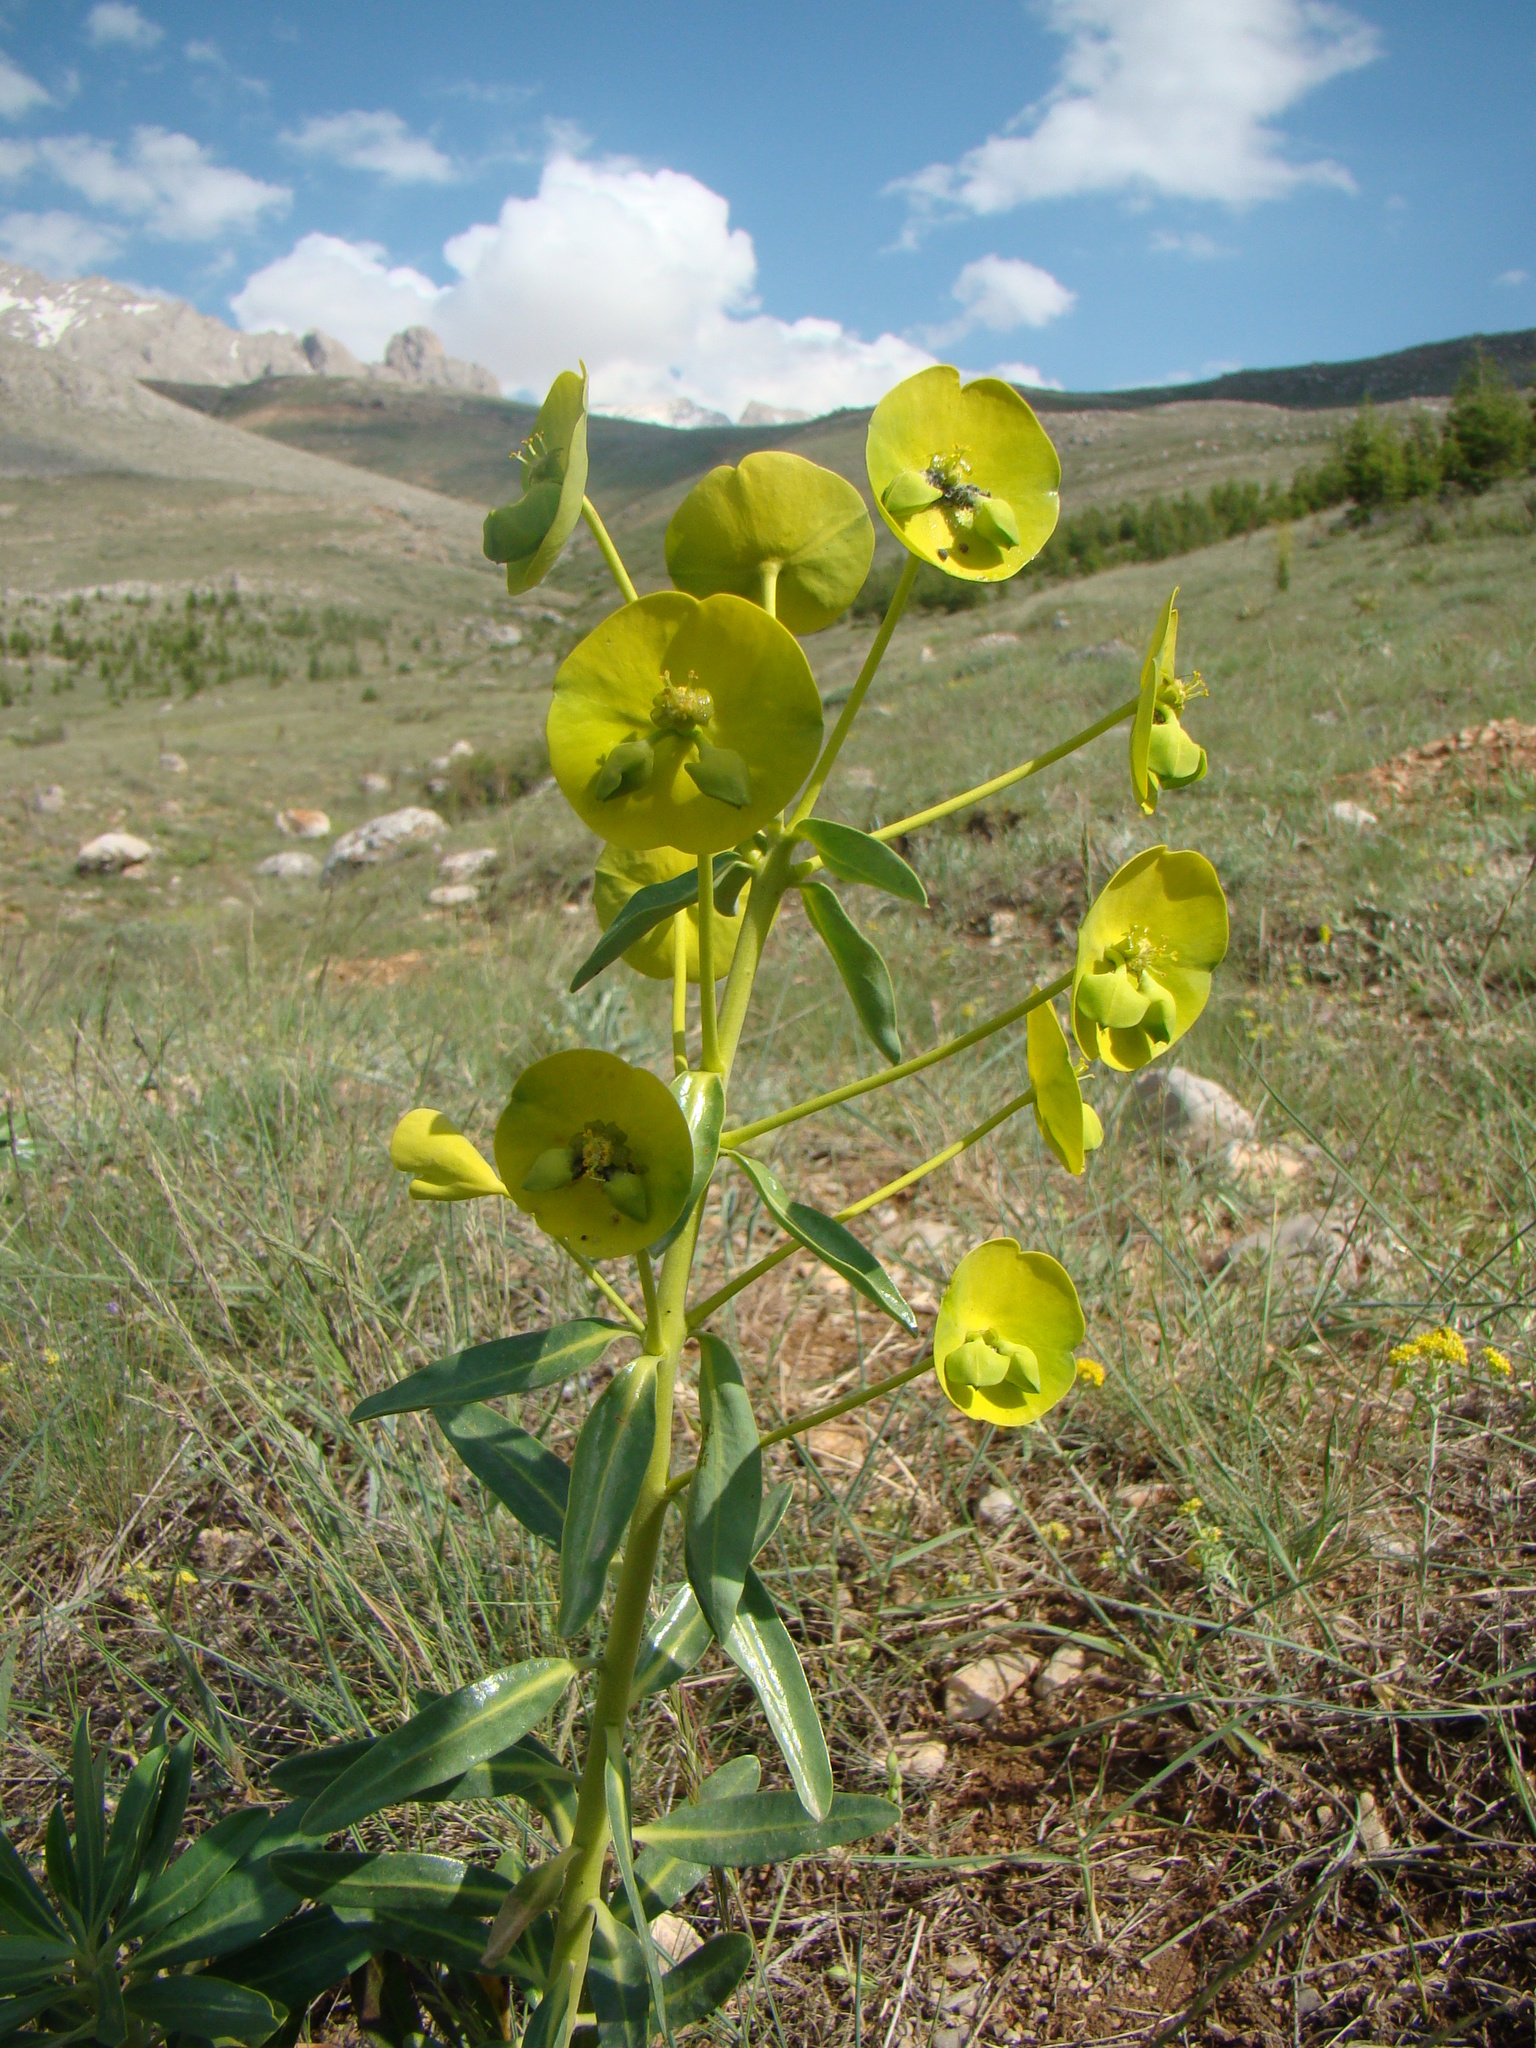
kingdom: Plantae
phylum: Tracheophyta
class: Magnoliopsida
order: Malpighiales
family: Euphorbiaceae
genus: Euphorbia
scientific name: Euphorbia kotschyana
